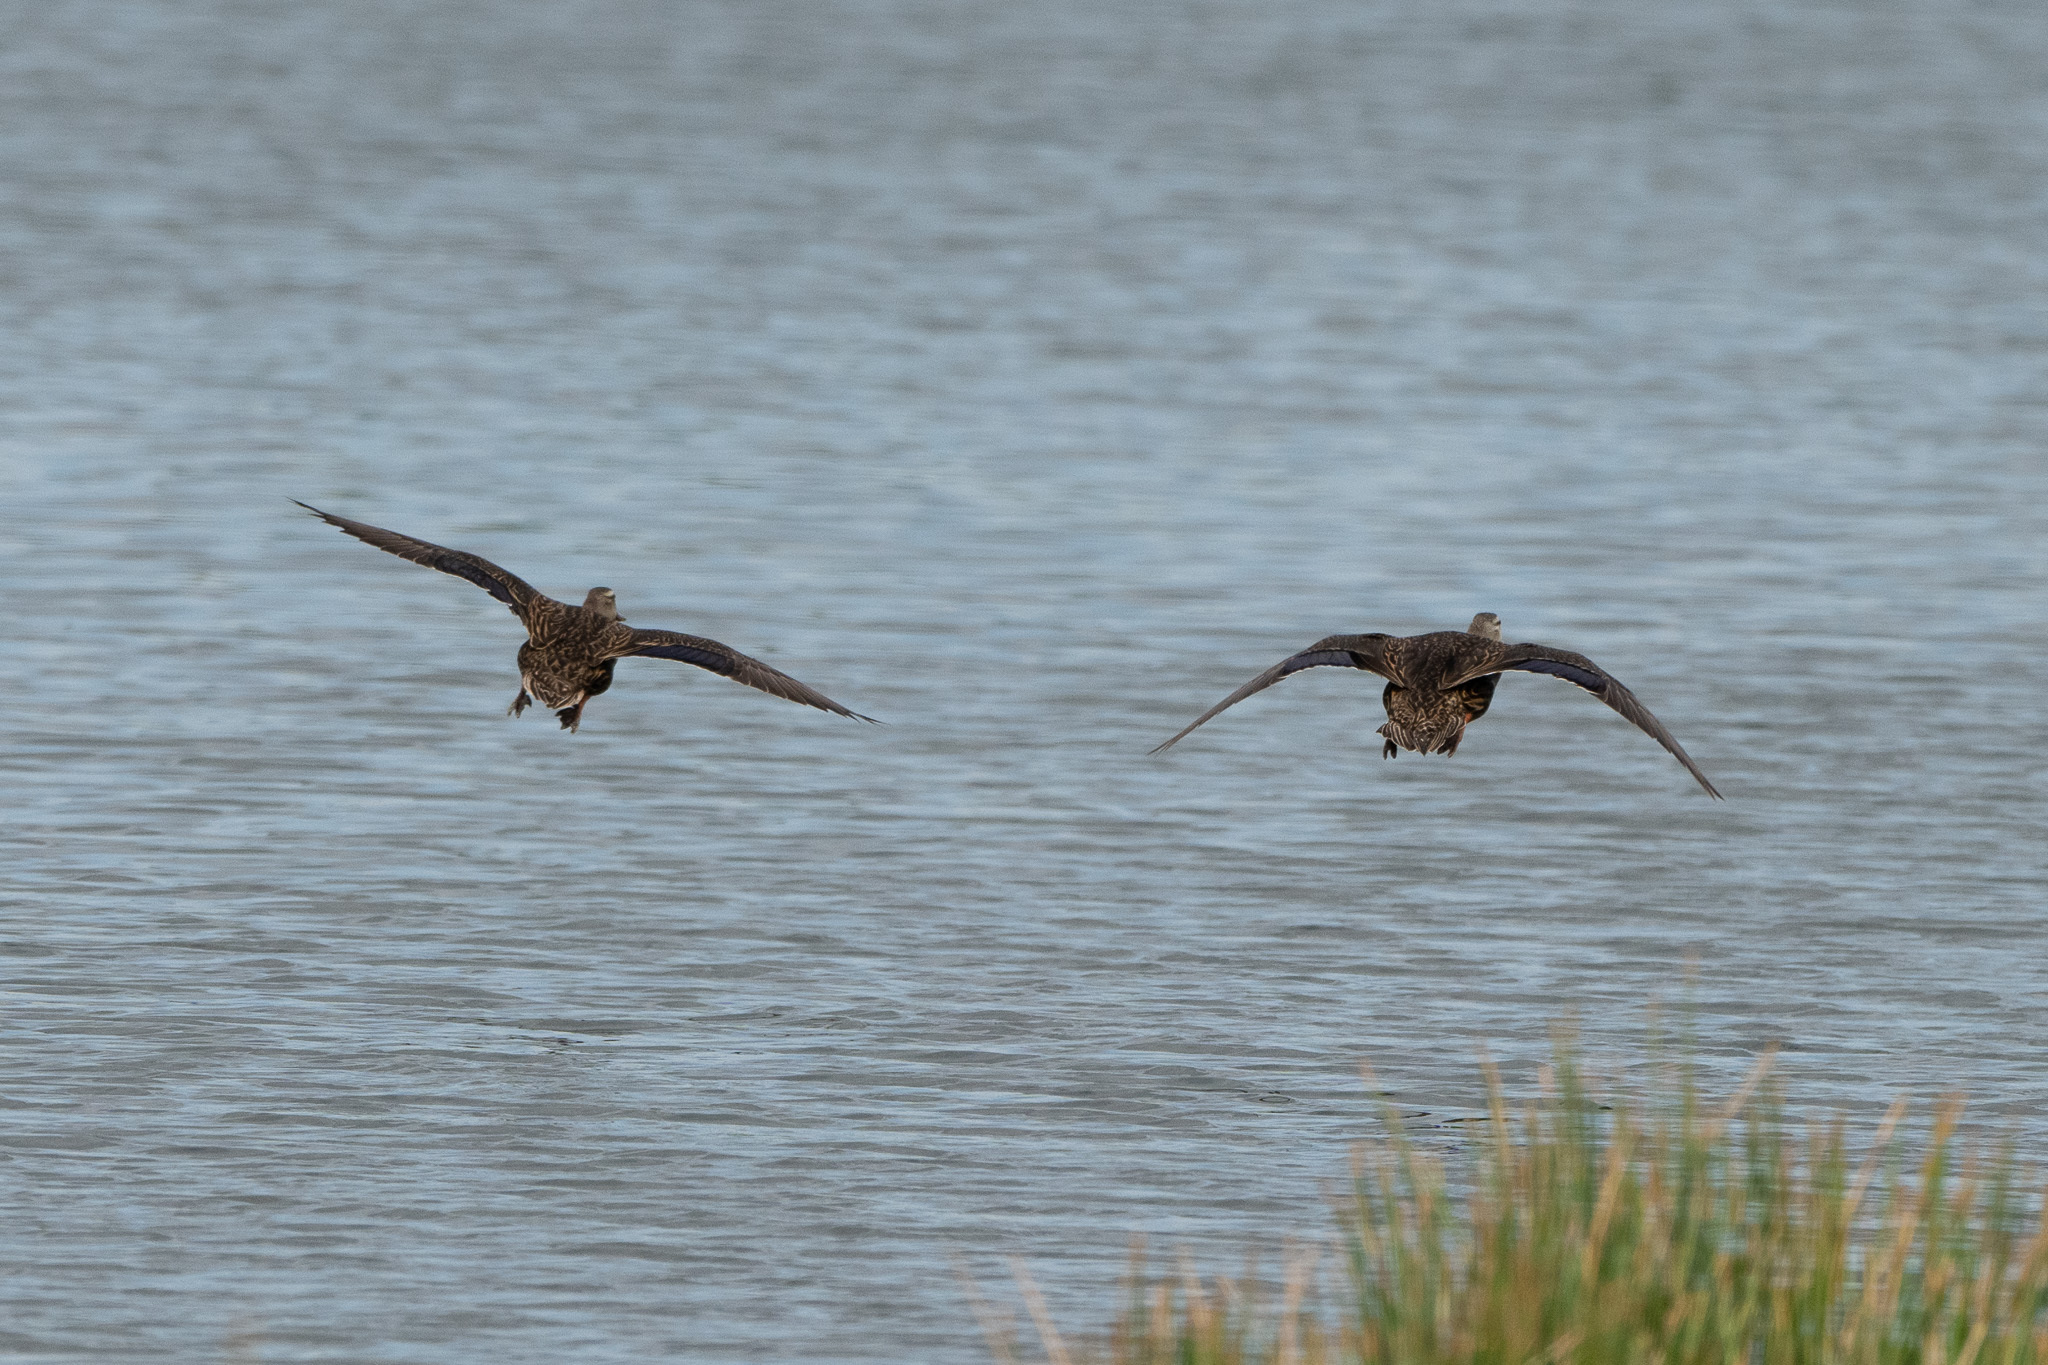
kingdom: Animalia
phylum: Chordata
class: Aves
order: Anseriformes
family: Anatidae
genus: Anas
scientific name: Anas fulvigula
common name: Mottled duck
